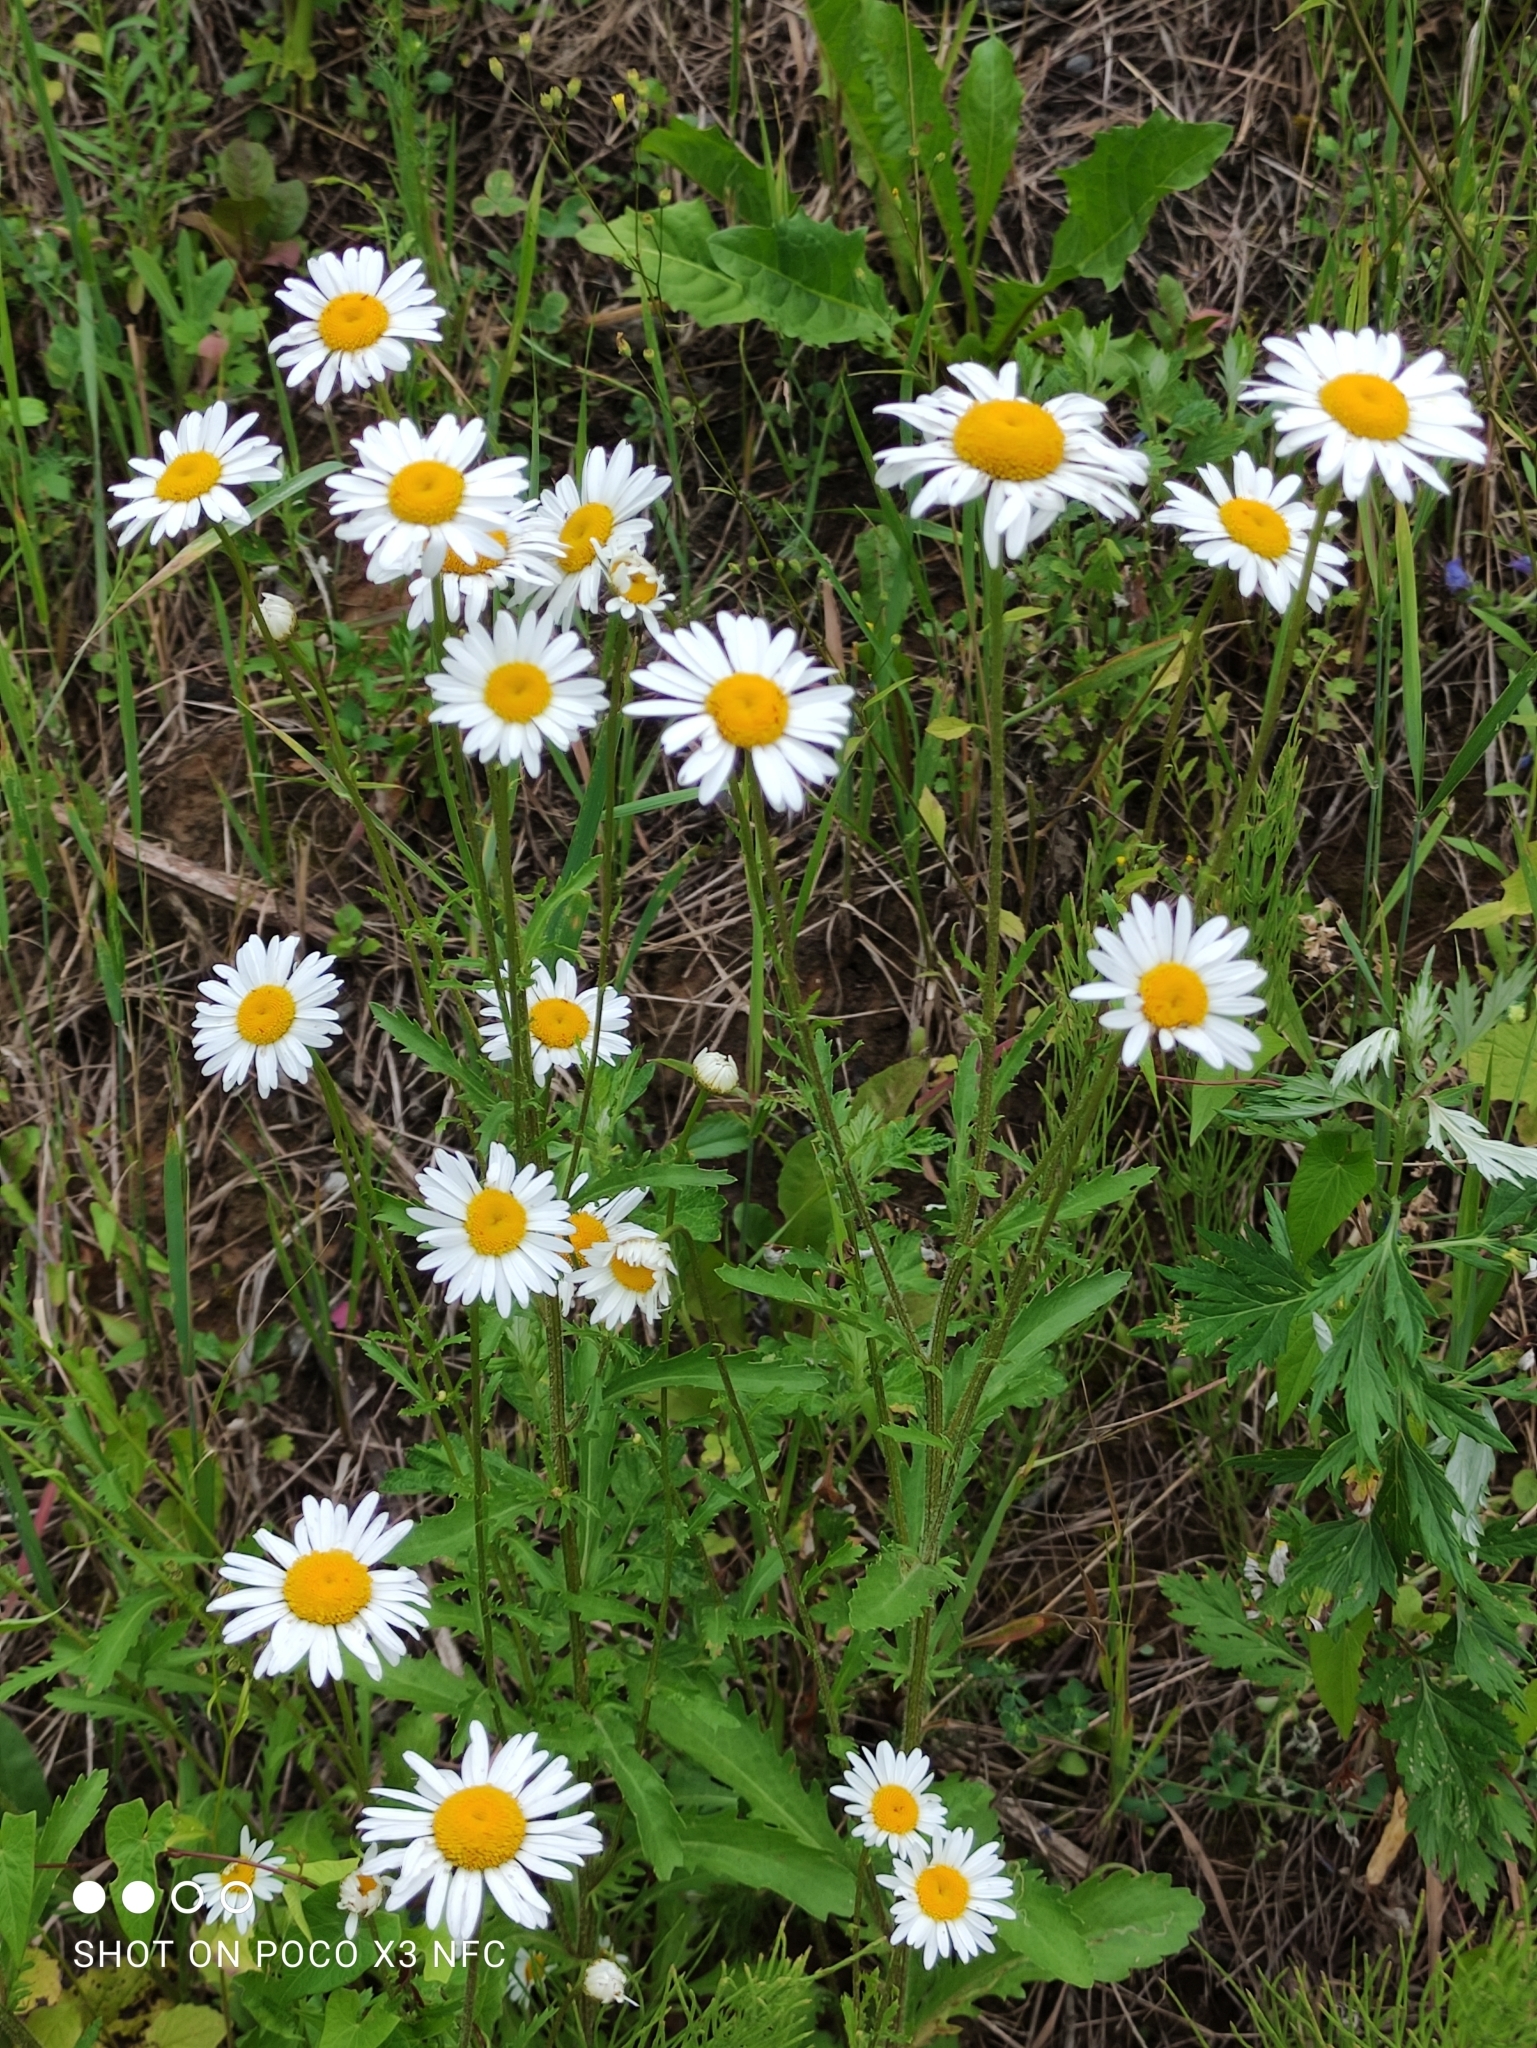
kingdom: Plantae
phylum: Tracheophyta
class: Magnoliopsida
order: Asterales
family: Asteraceae
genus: Leucanthemum
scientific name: Leucanthemum vulgare
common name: Oxeye daisy
